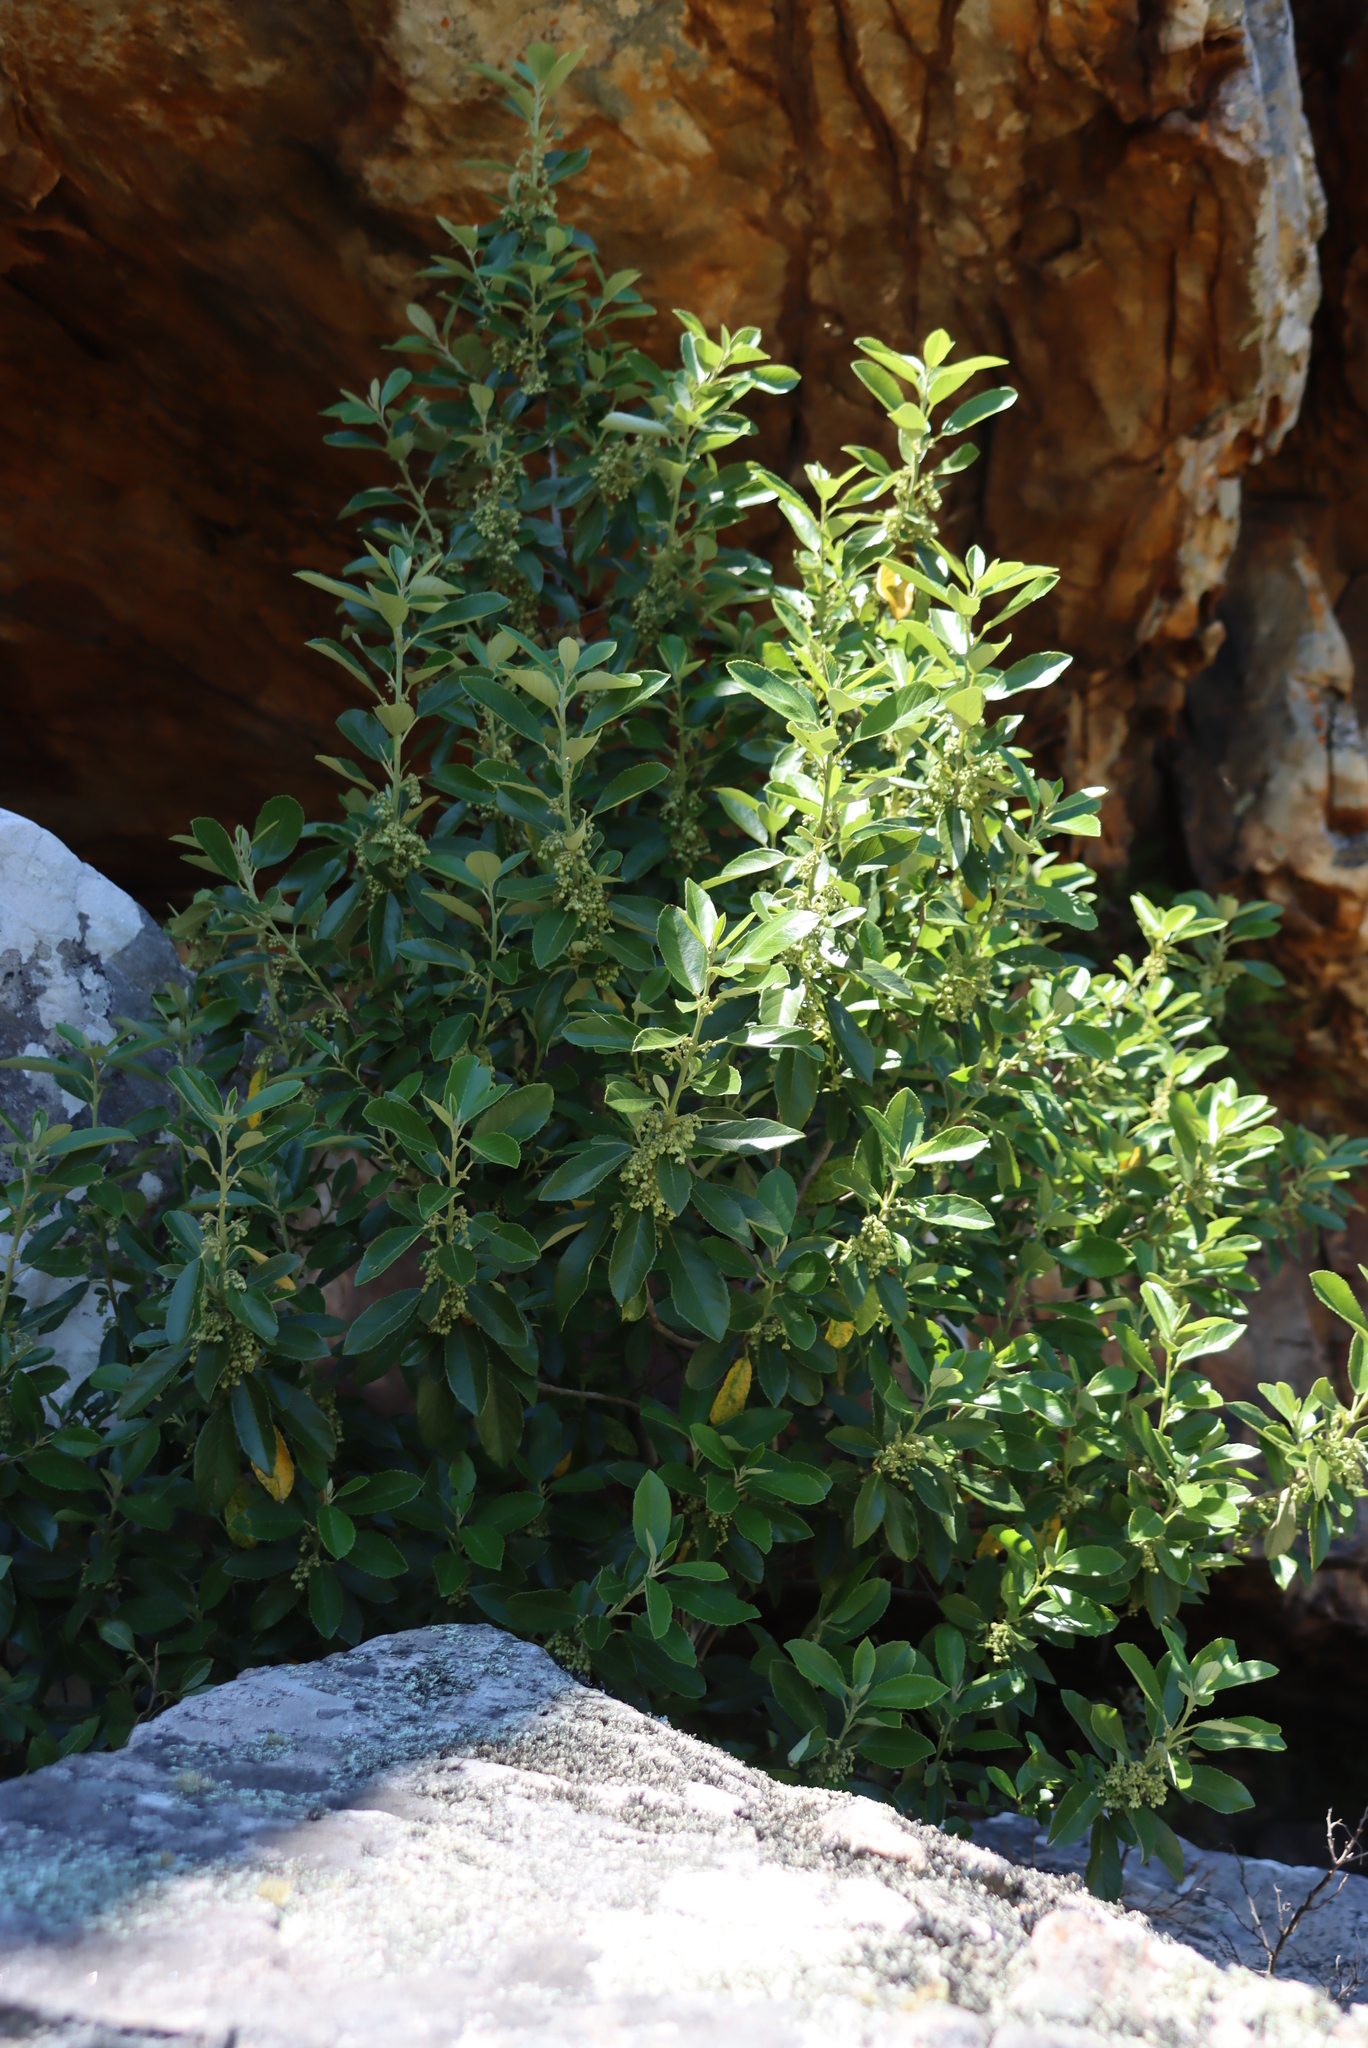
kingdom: Plantae
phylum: Tracheophyta
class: Magnoliopsida
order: Malpighiales
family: Achariaceae
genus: Kiggelaria
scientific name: Kiggelaria africana
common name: Wild peach
